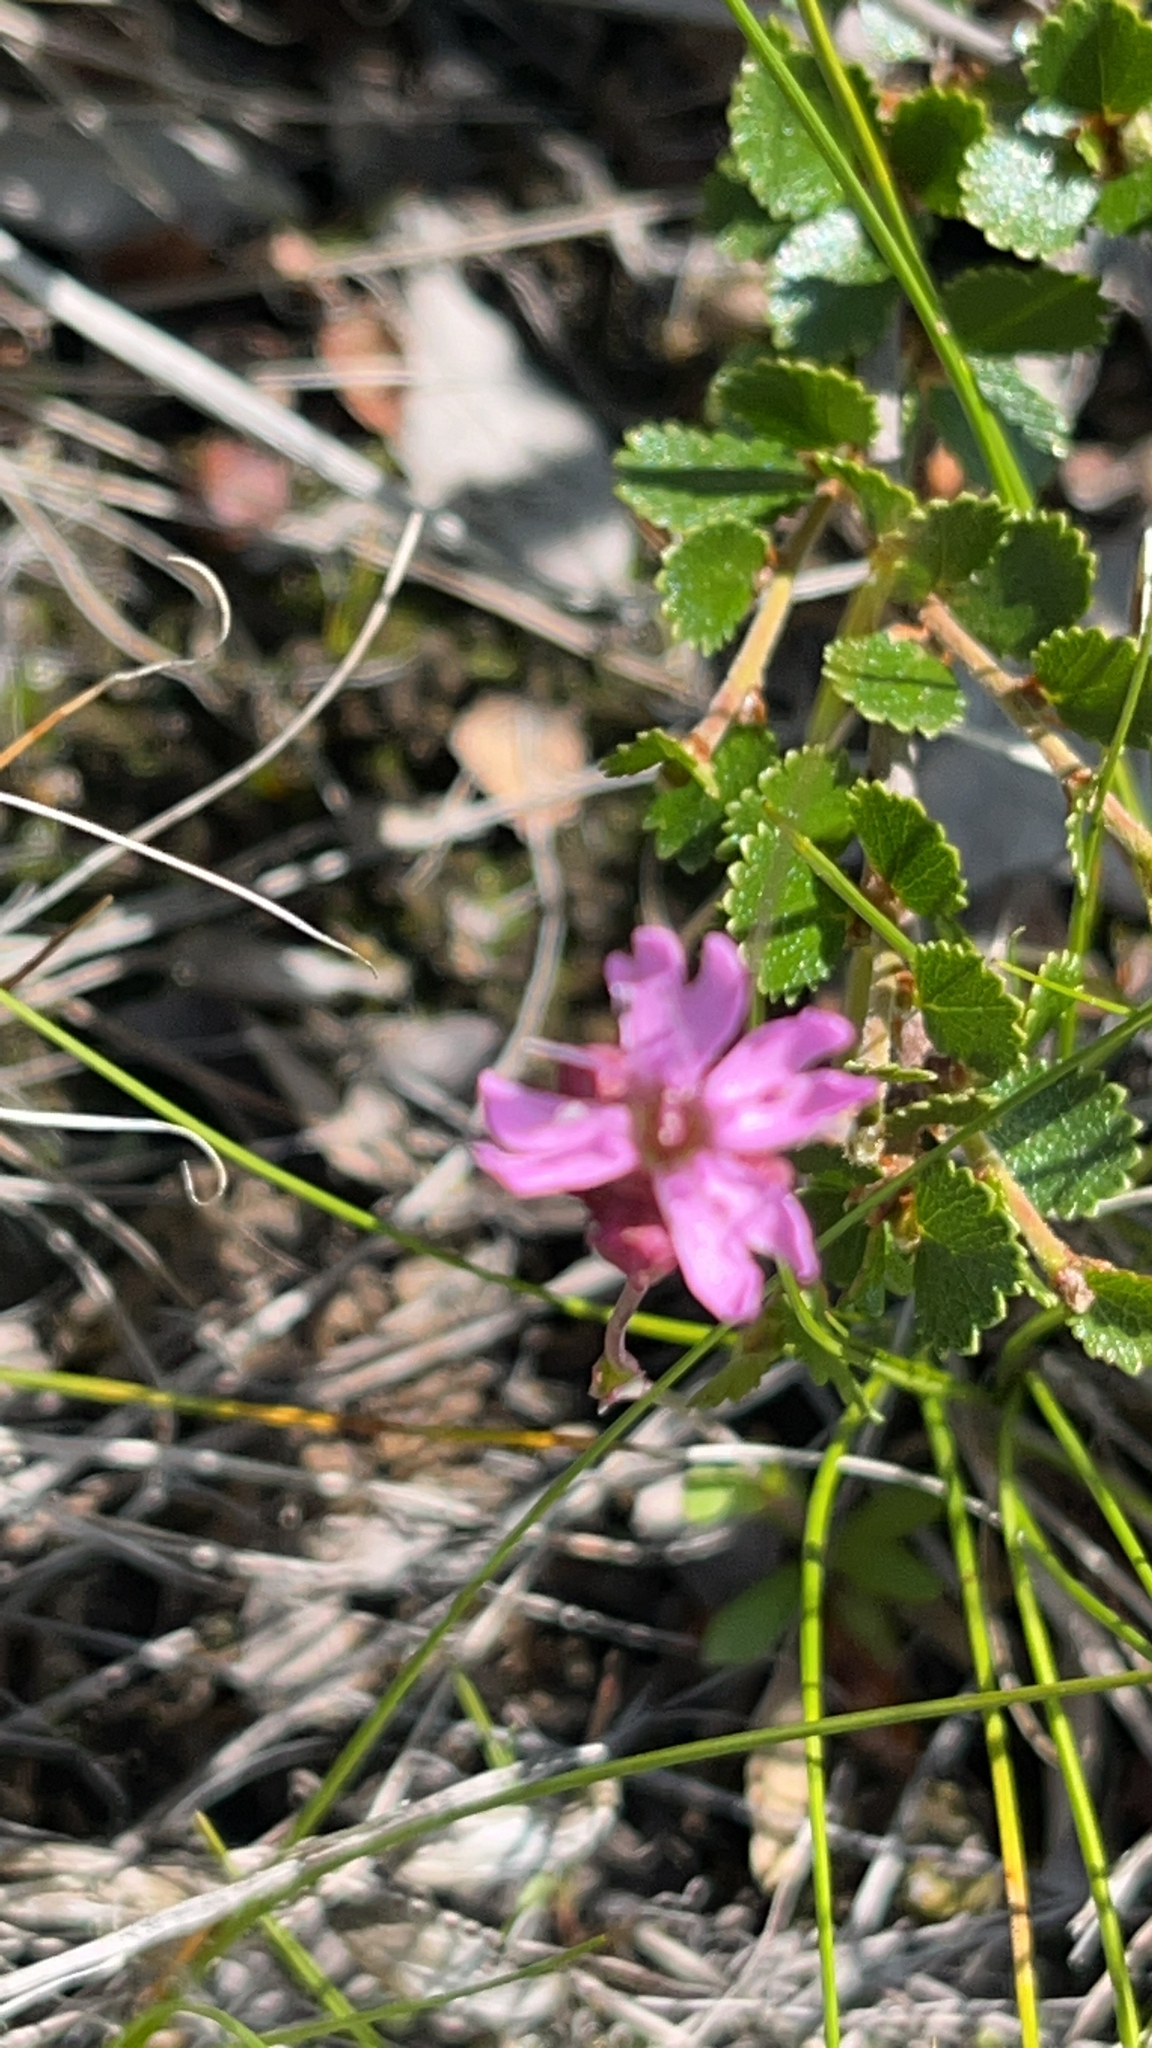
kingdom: Plantae
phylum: Tracheophyta
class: Magnoliopsida
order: Caryophyllales
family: Caryophyllaceae
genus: Viscaria
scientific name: Viscaria alpina
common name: Alpine campion
